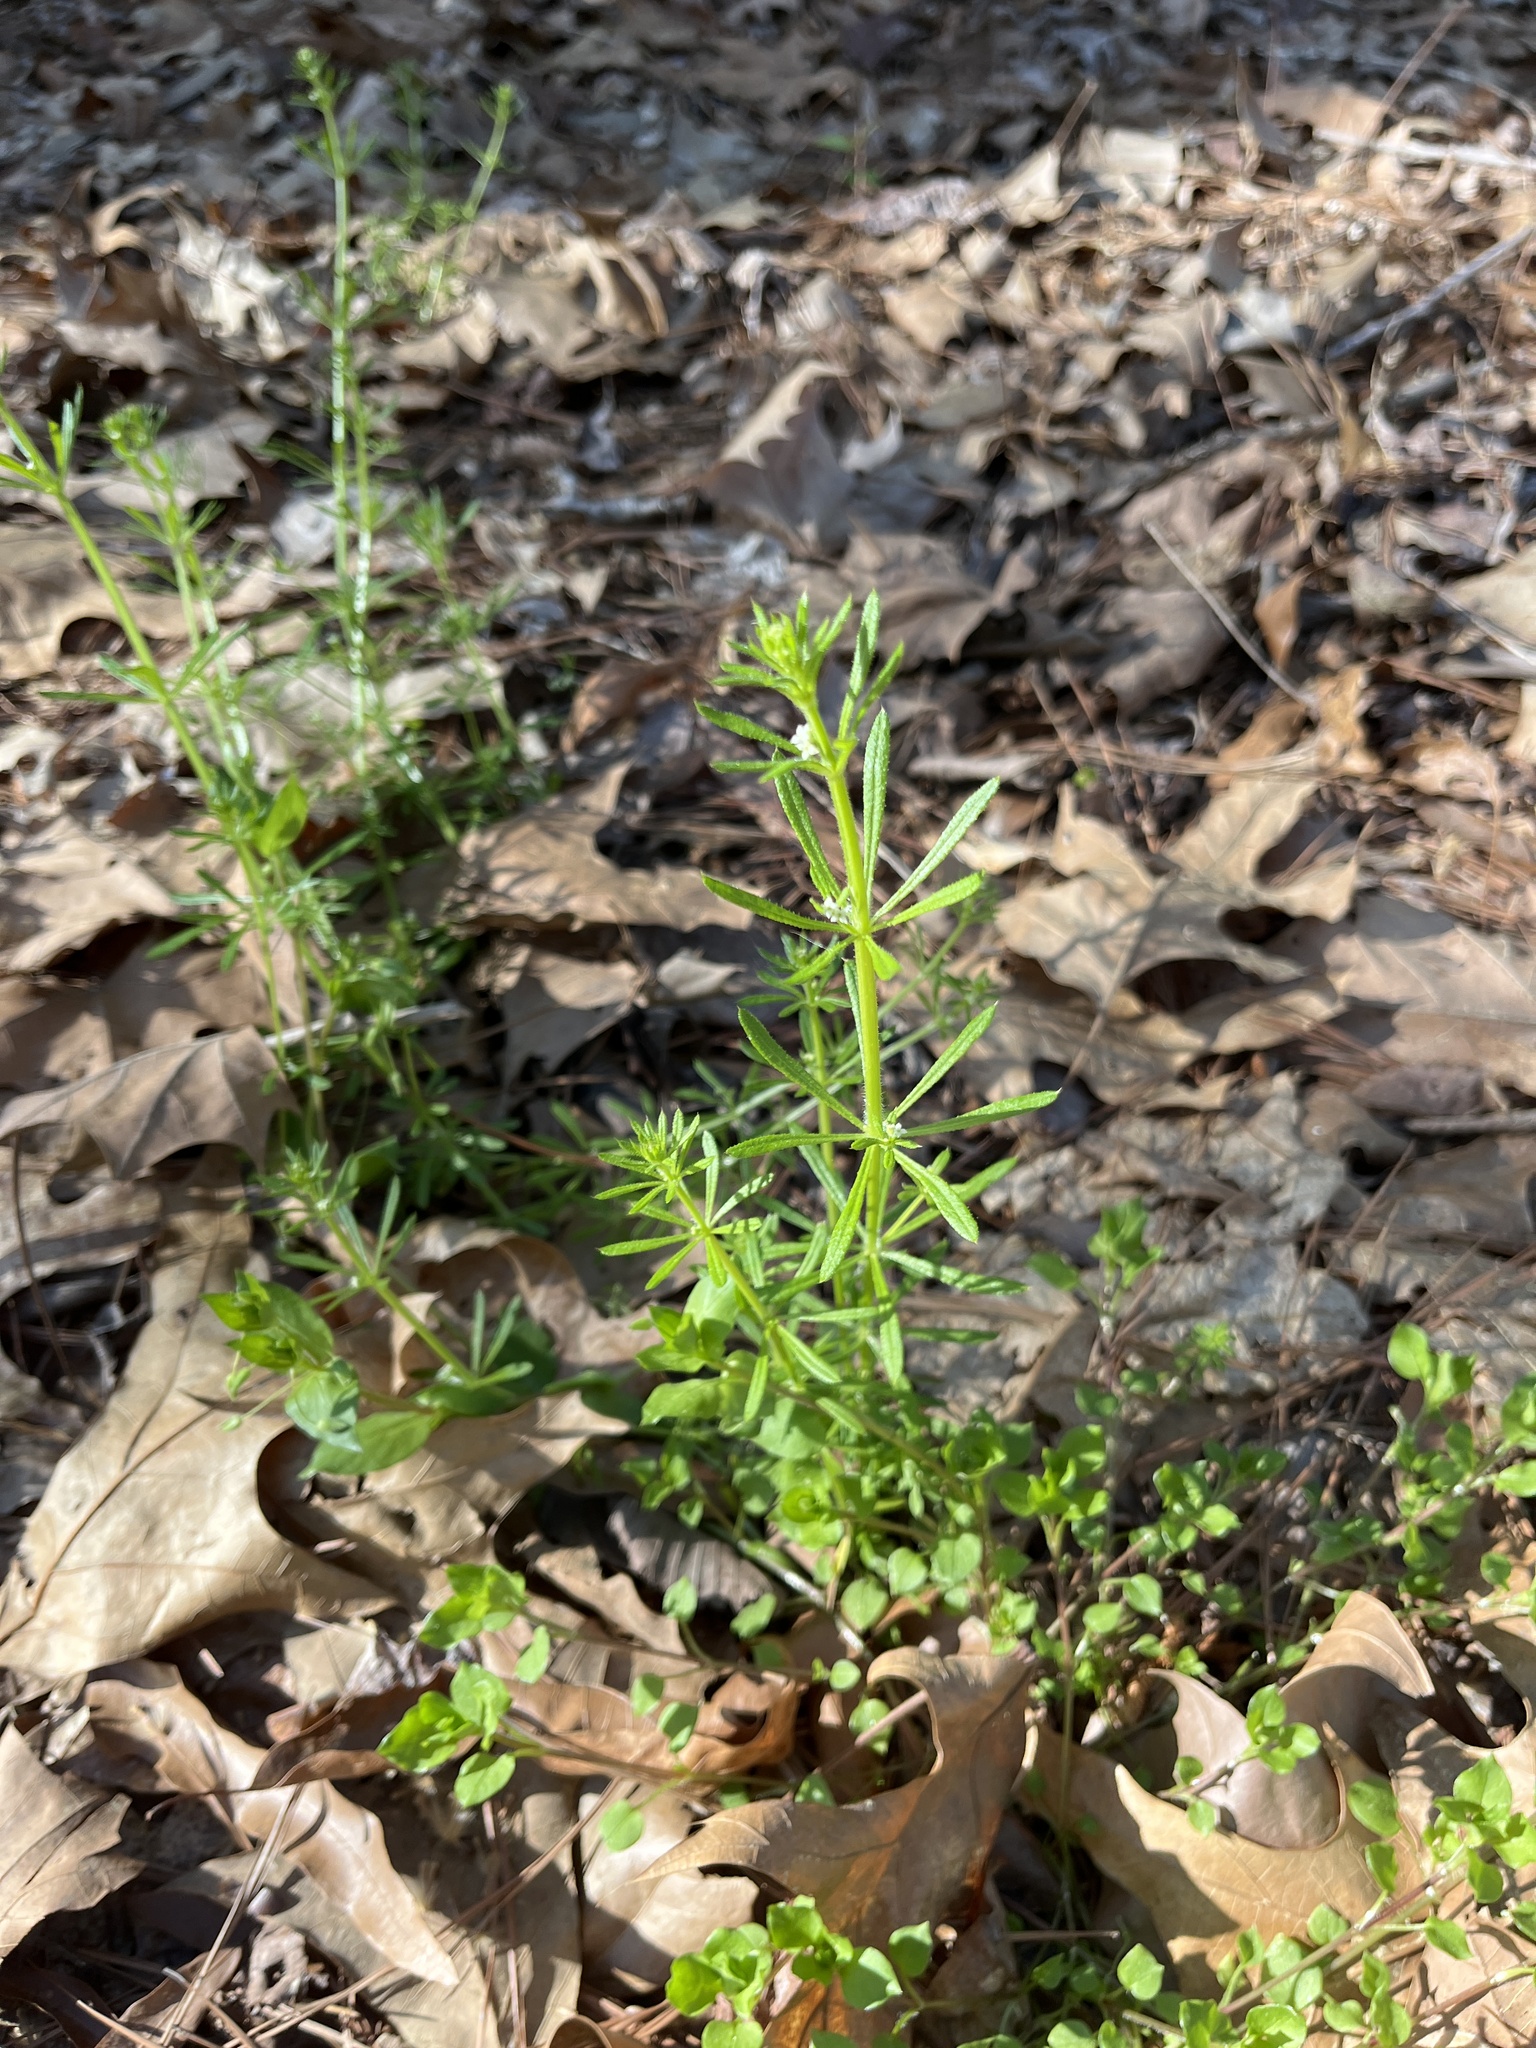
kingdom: Plantae
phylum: Tracheophyta
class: Magnoliopsida
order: Gentianales
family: Rubiaceae
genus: Galium
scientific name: Galium aparine
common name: Cleavers
